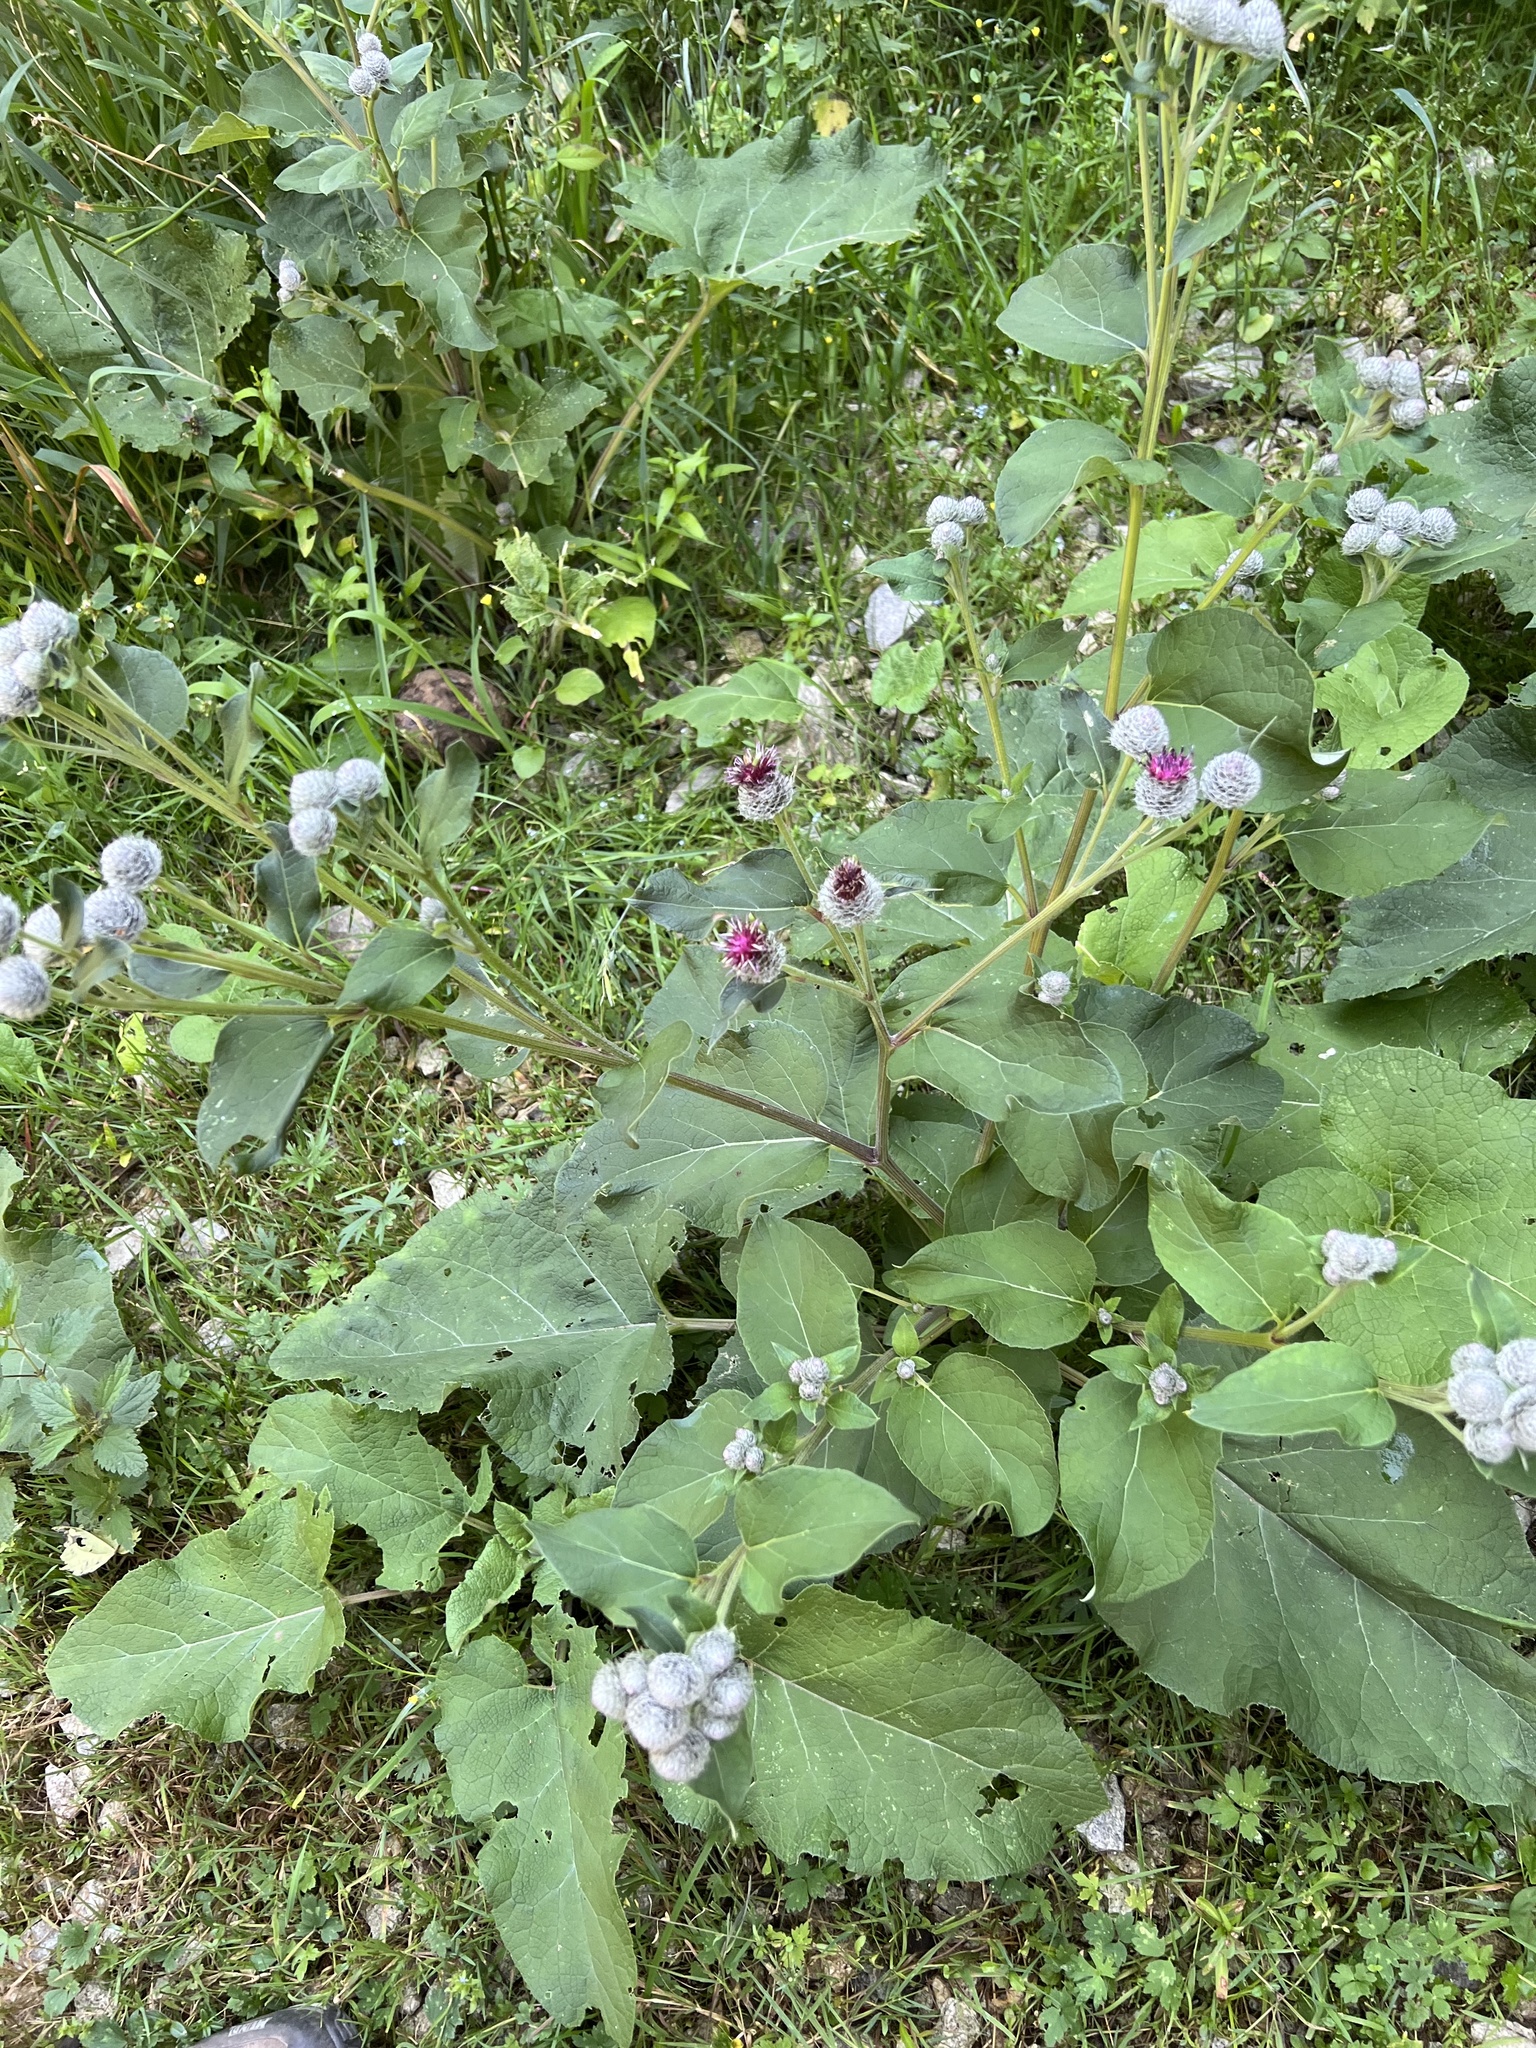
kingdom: Plantae
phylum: Tracheophyta
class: Magnoliopsida
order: Asterales
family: Asteraceae
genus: Arctium
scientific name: Arctium tomentosum
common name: Woolly burdock
